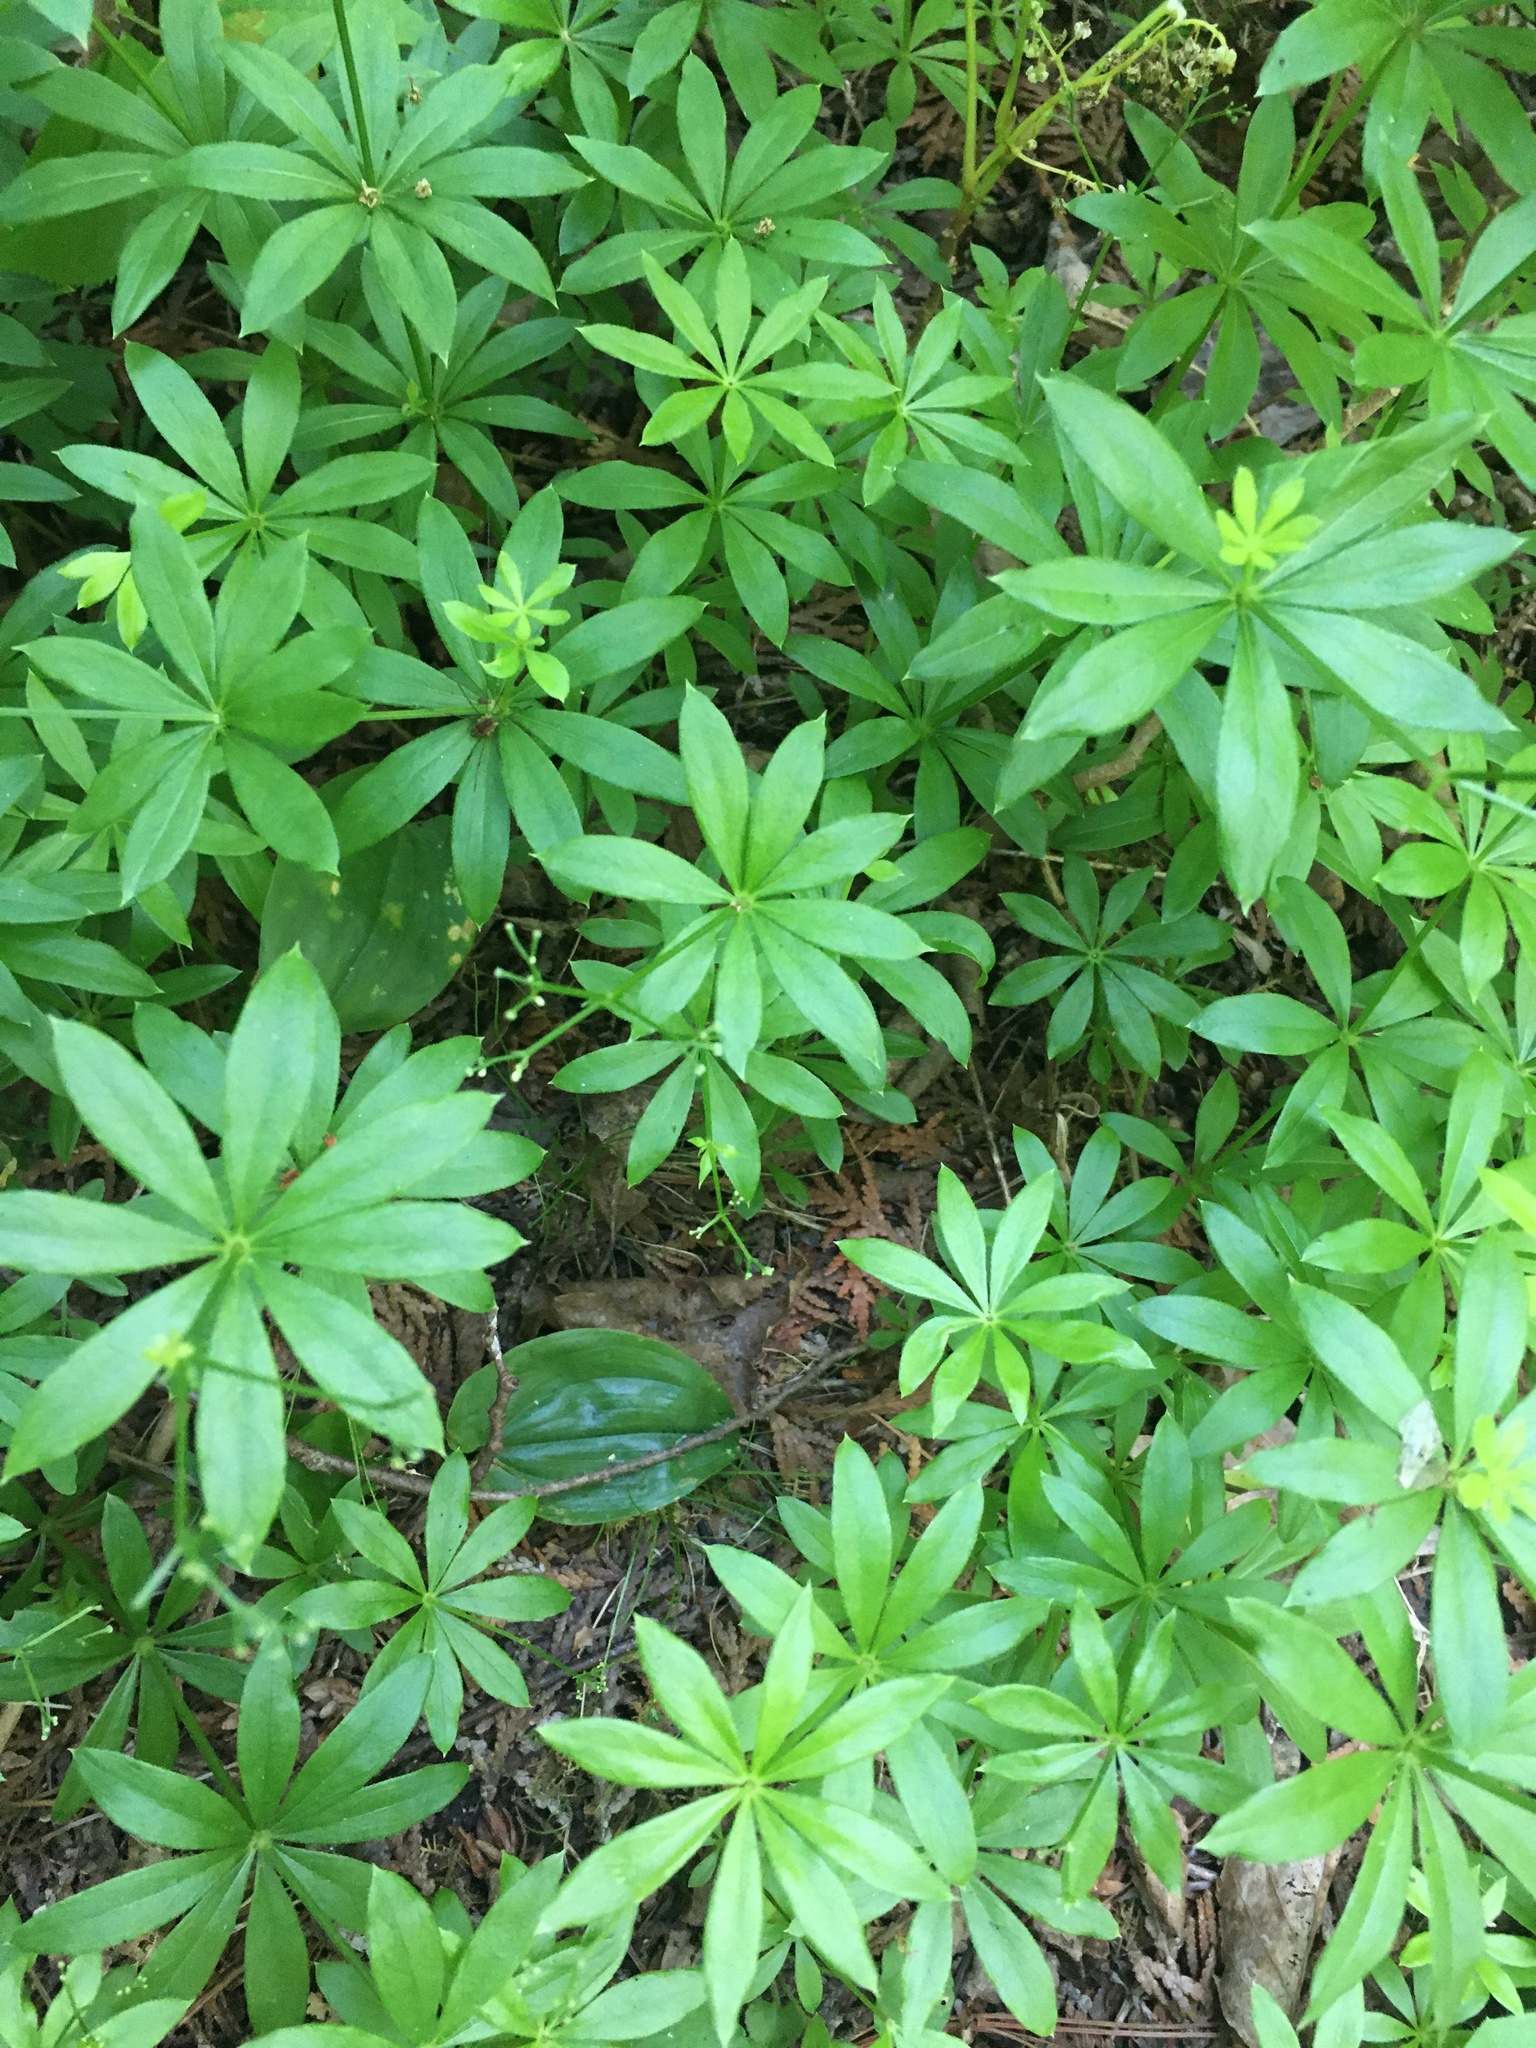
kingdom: Plantae
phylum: Tracheophyta
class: Magnoliopsida
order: Gentianales
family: Rubiaceae
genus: Galium
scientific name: Galium odoratum
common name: Sweet woodruff
